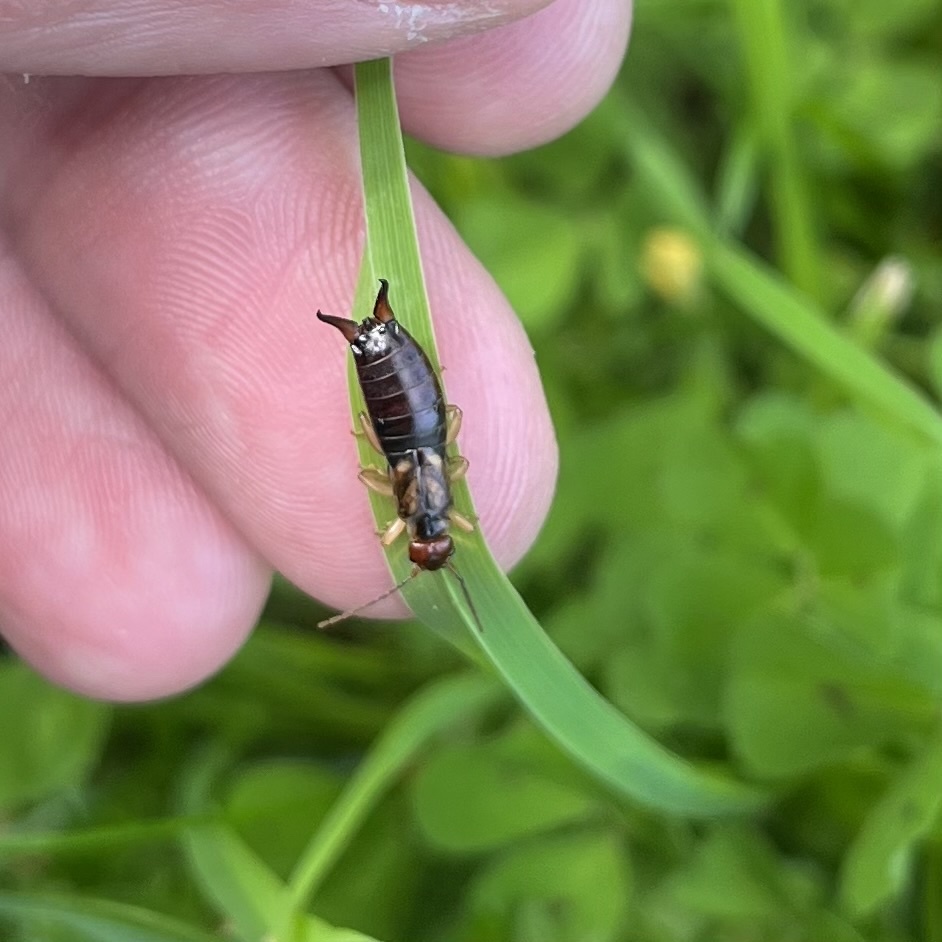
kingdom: Animalia
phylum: Arthropoda
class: Insecta
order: Dermaptera
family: Forficulidae
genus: Forficula
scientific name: Forficula
